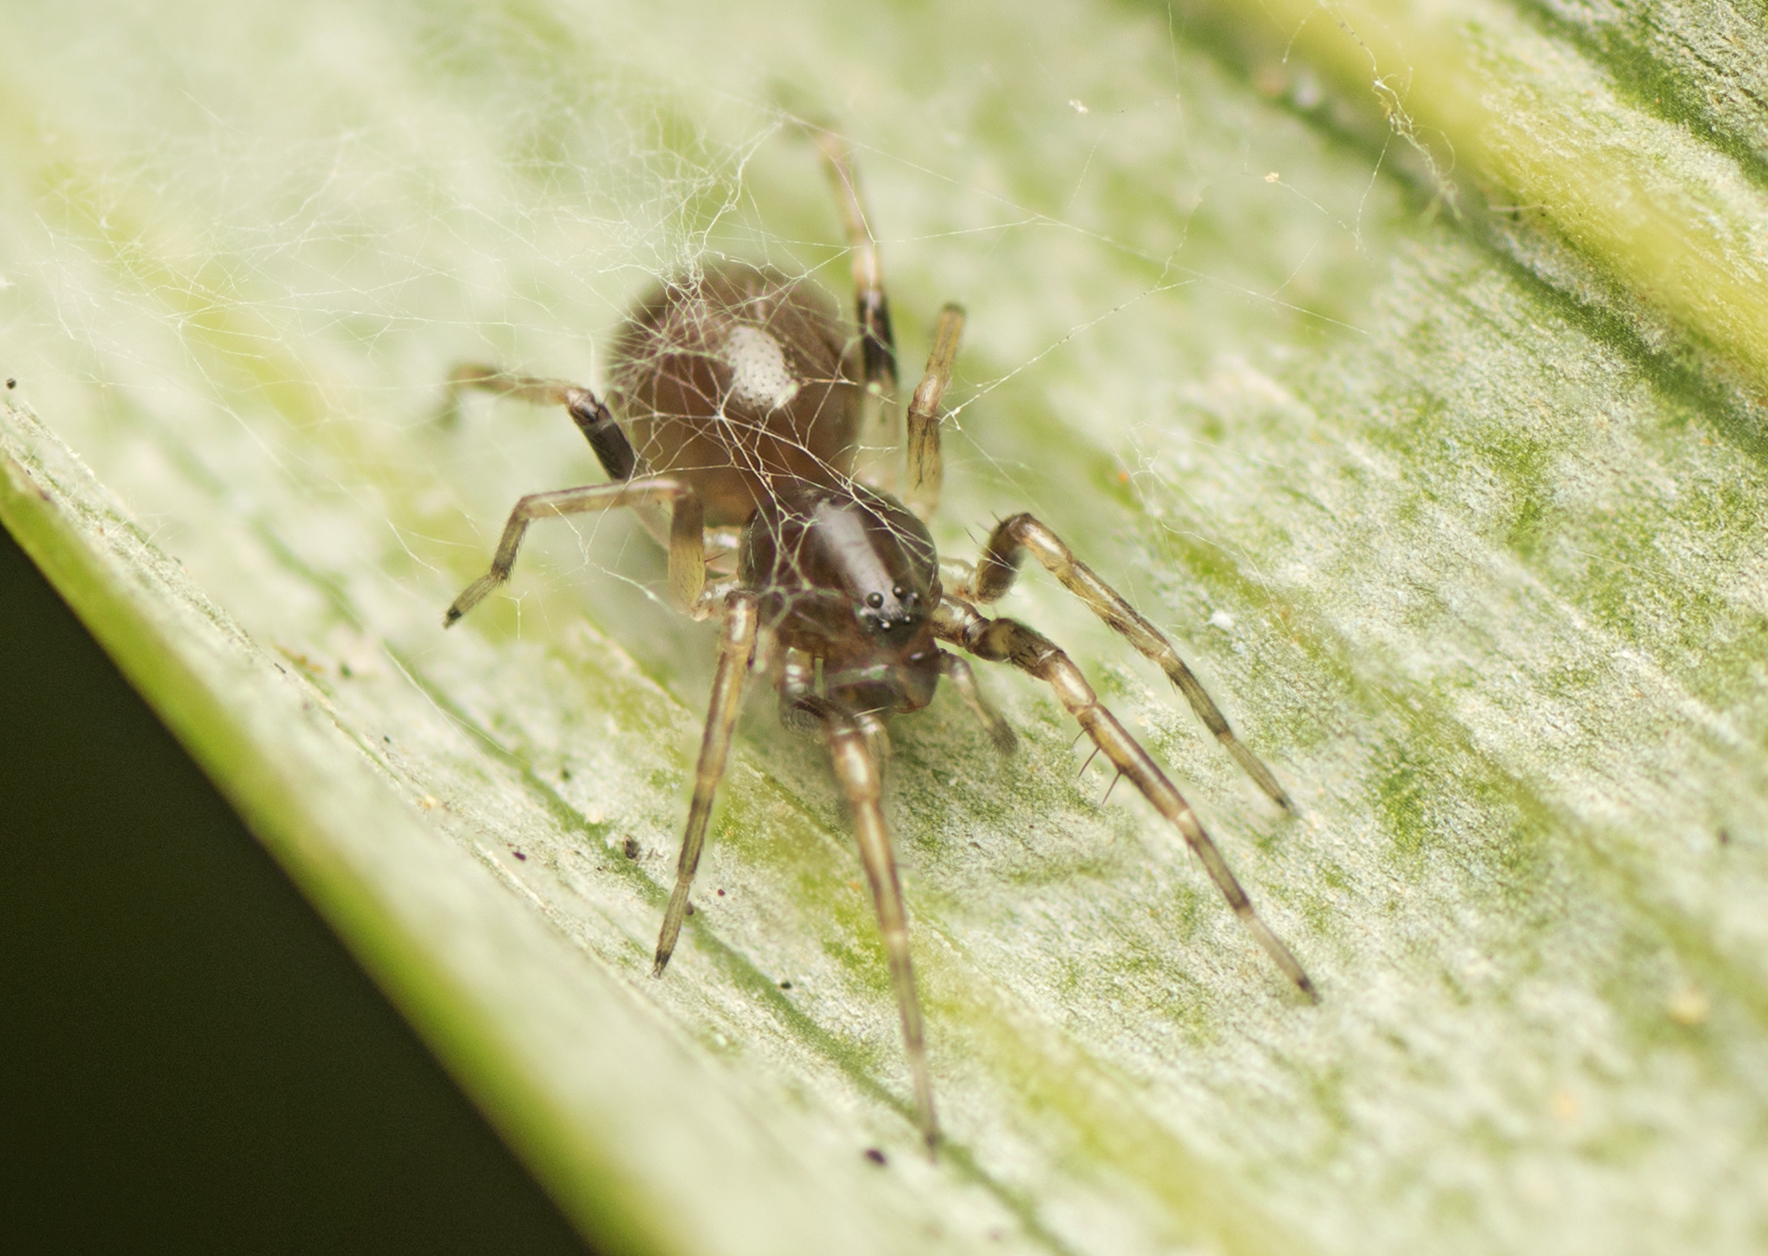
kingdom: Animalia
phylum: Arthropoda
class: Arachnida
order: Araneae
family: Corinnidae
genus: Battalus
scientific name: Battalus wallum
